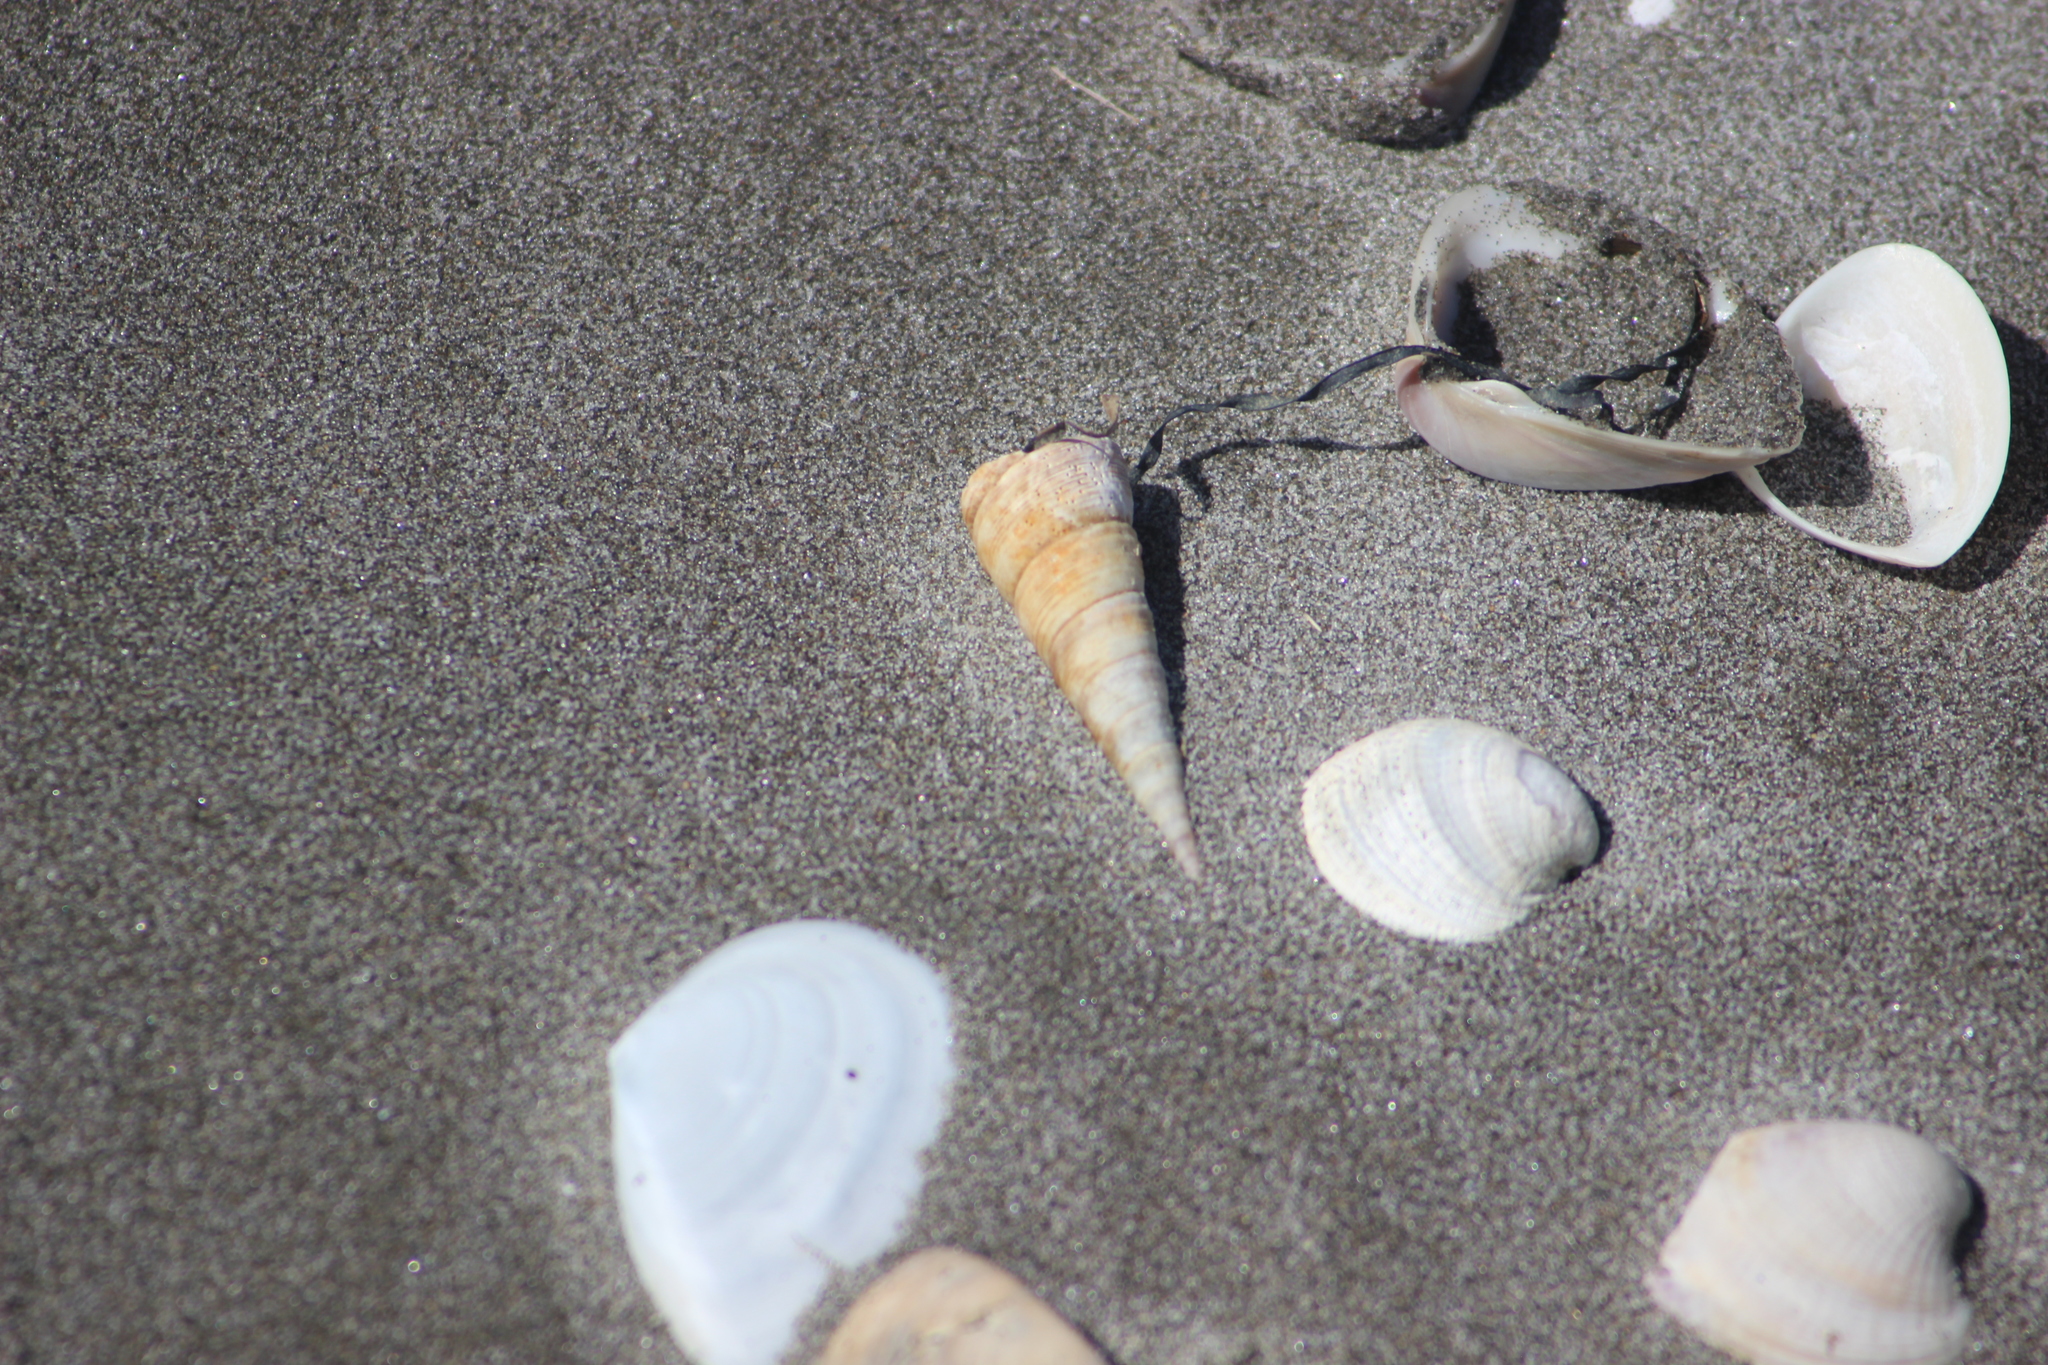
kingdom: Animalia
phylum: Mollusca
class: Gastropoda
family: Turritellidae
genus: Maoricolpus
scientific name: Maoricolpus roseus
